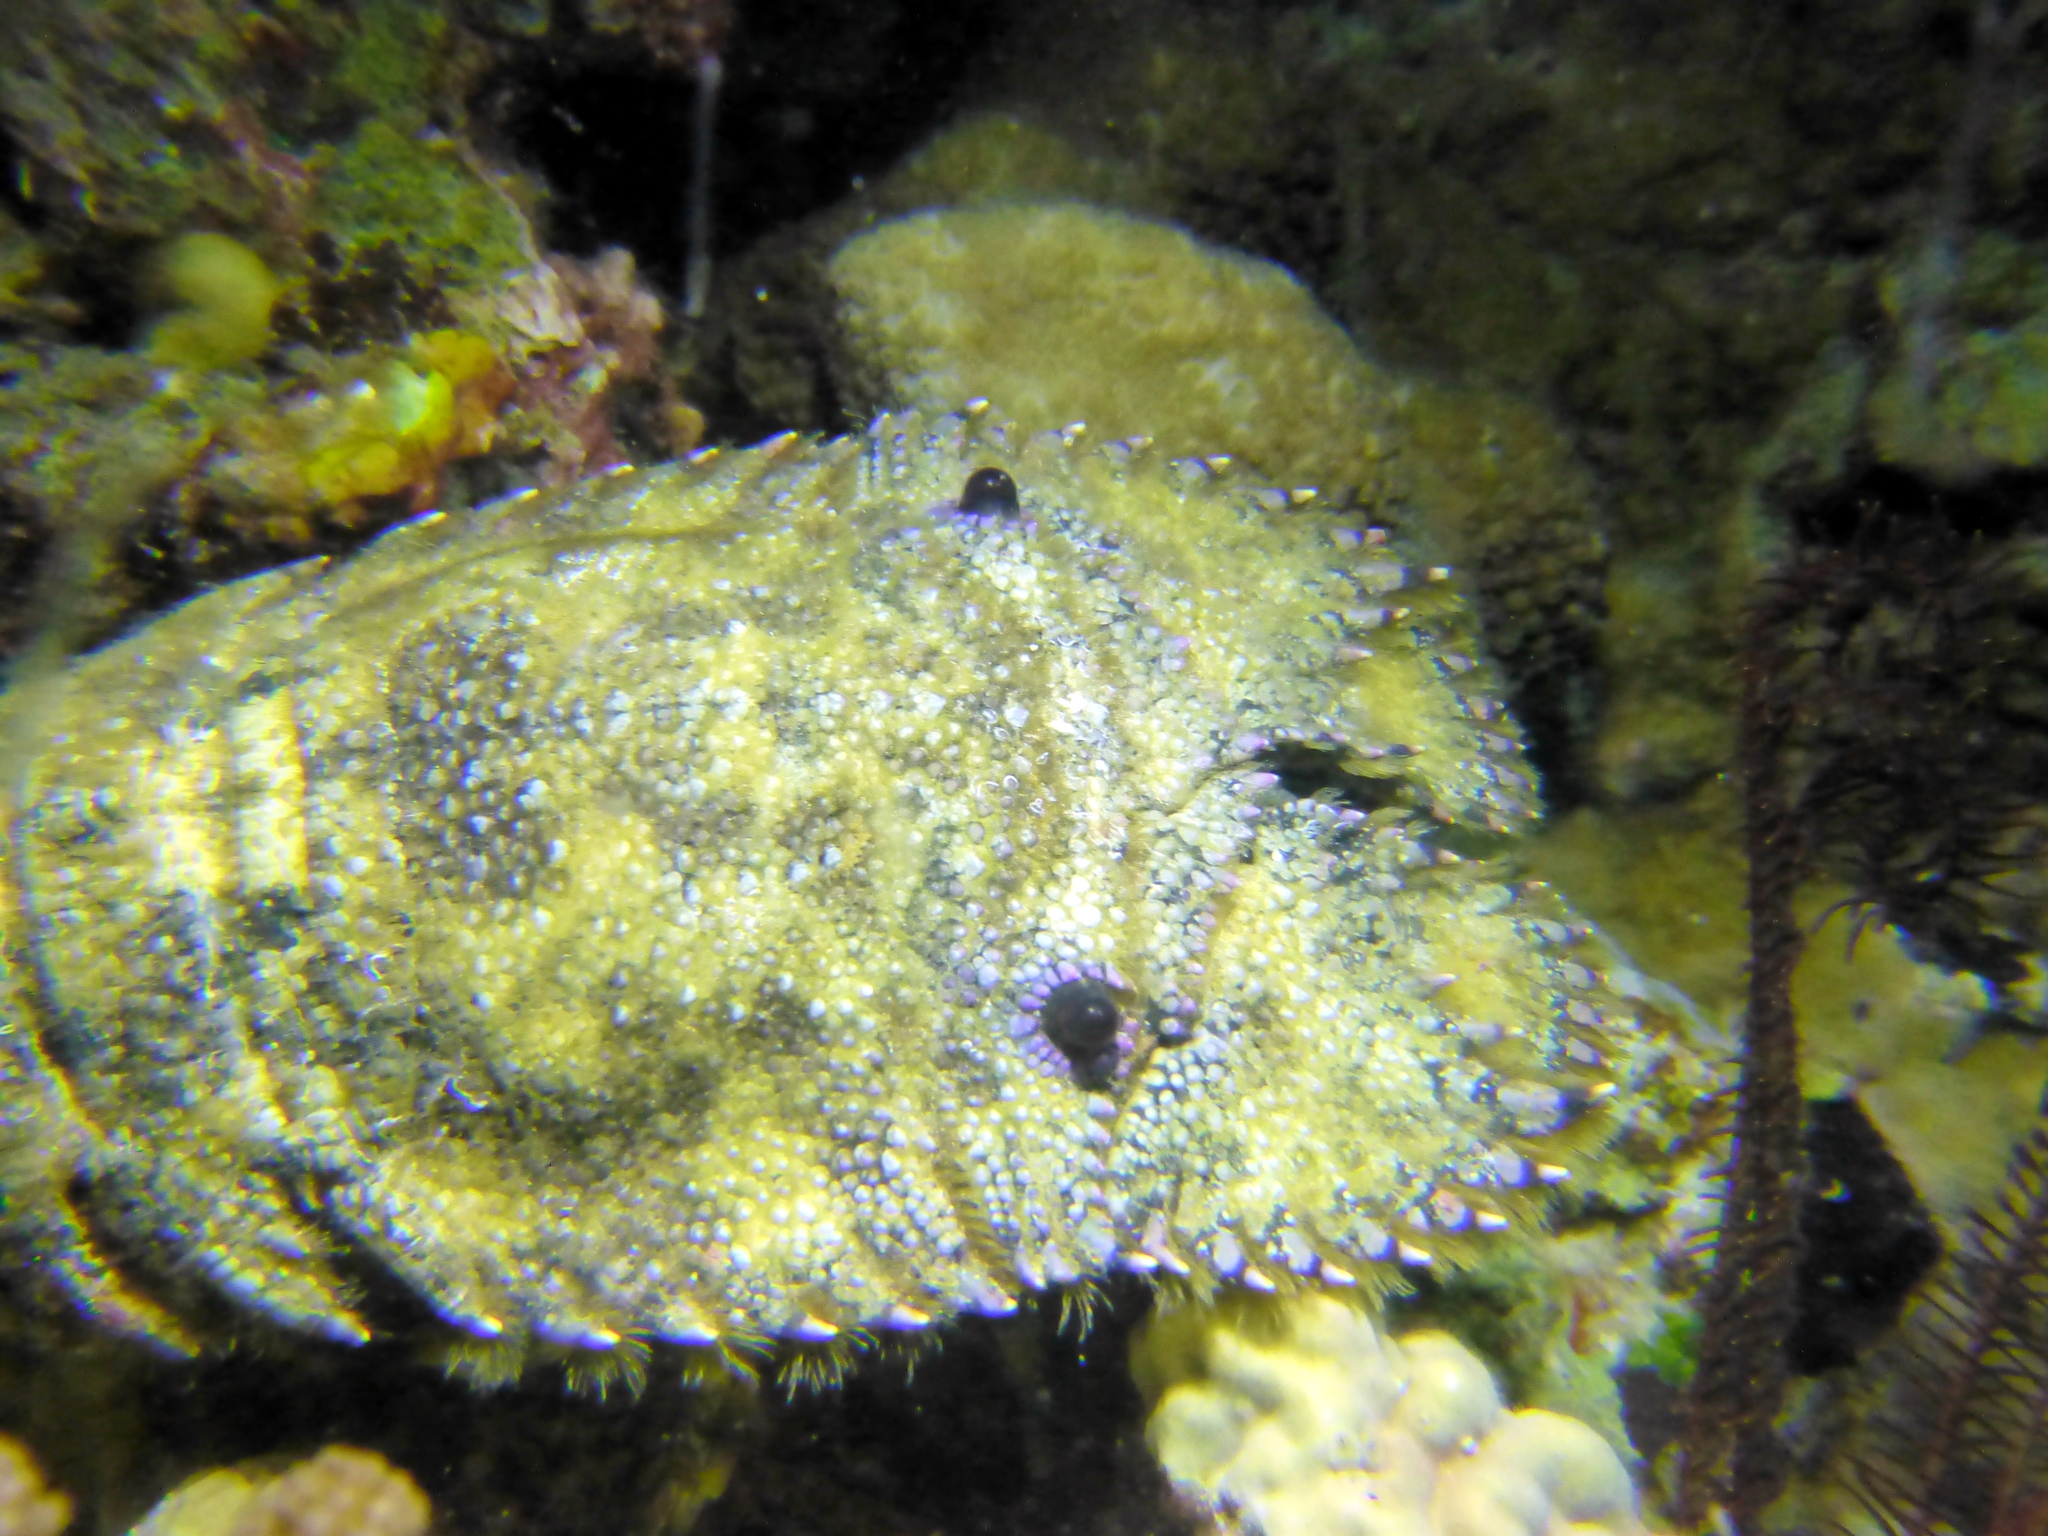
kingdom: Animalia
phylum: Arthropoda
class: Malacostraca
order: Decapoda
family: Scyllaridae
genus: Parribacus
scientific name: Parribacus antarcticus
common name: Sculptured mitten lobster
